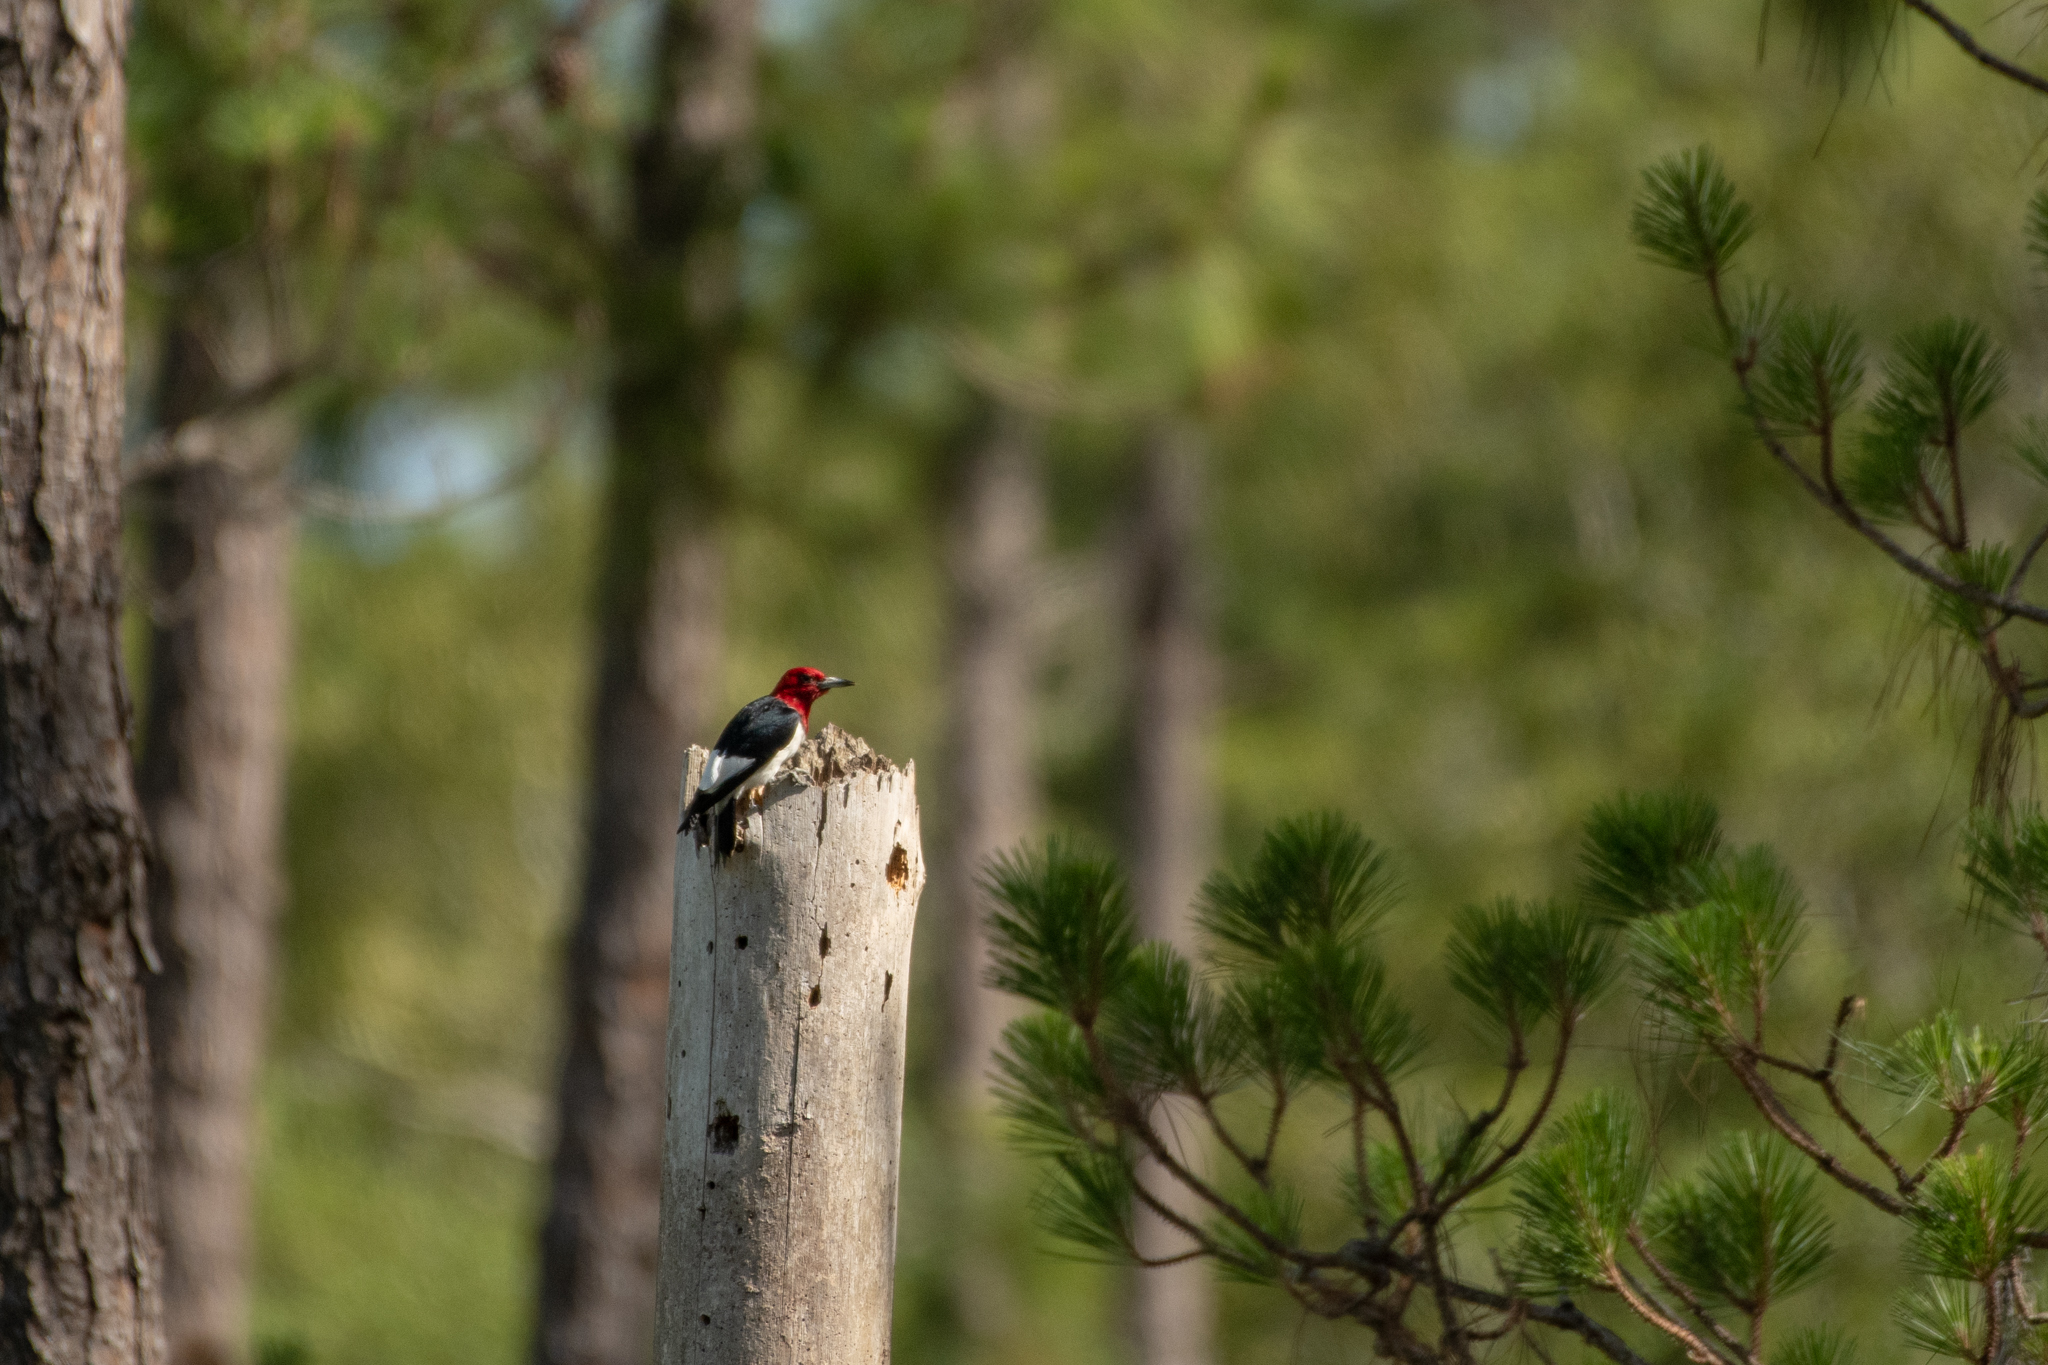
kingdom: Animalia
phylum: Chordata
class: Aves
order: Piciformes
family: Picidae
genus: Melanerpes
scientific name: Melanerpes erythrocephalus
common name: Red-headed woodpecker
